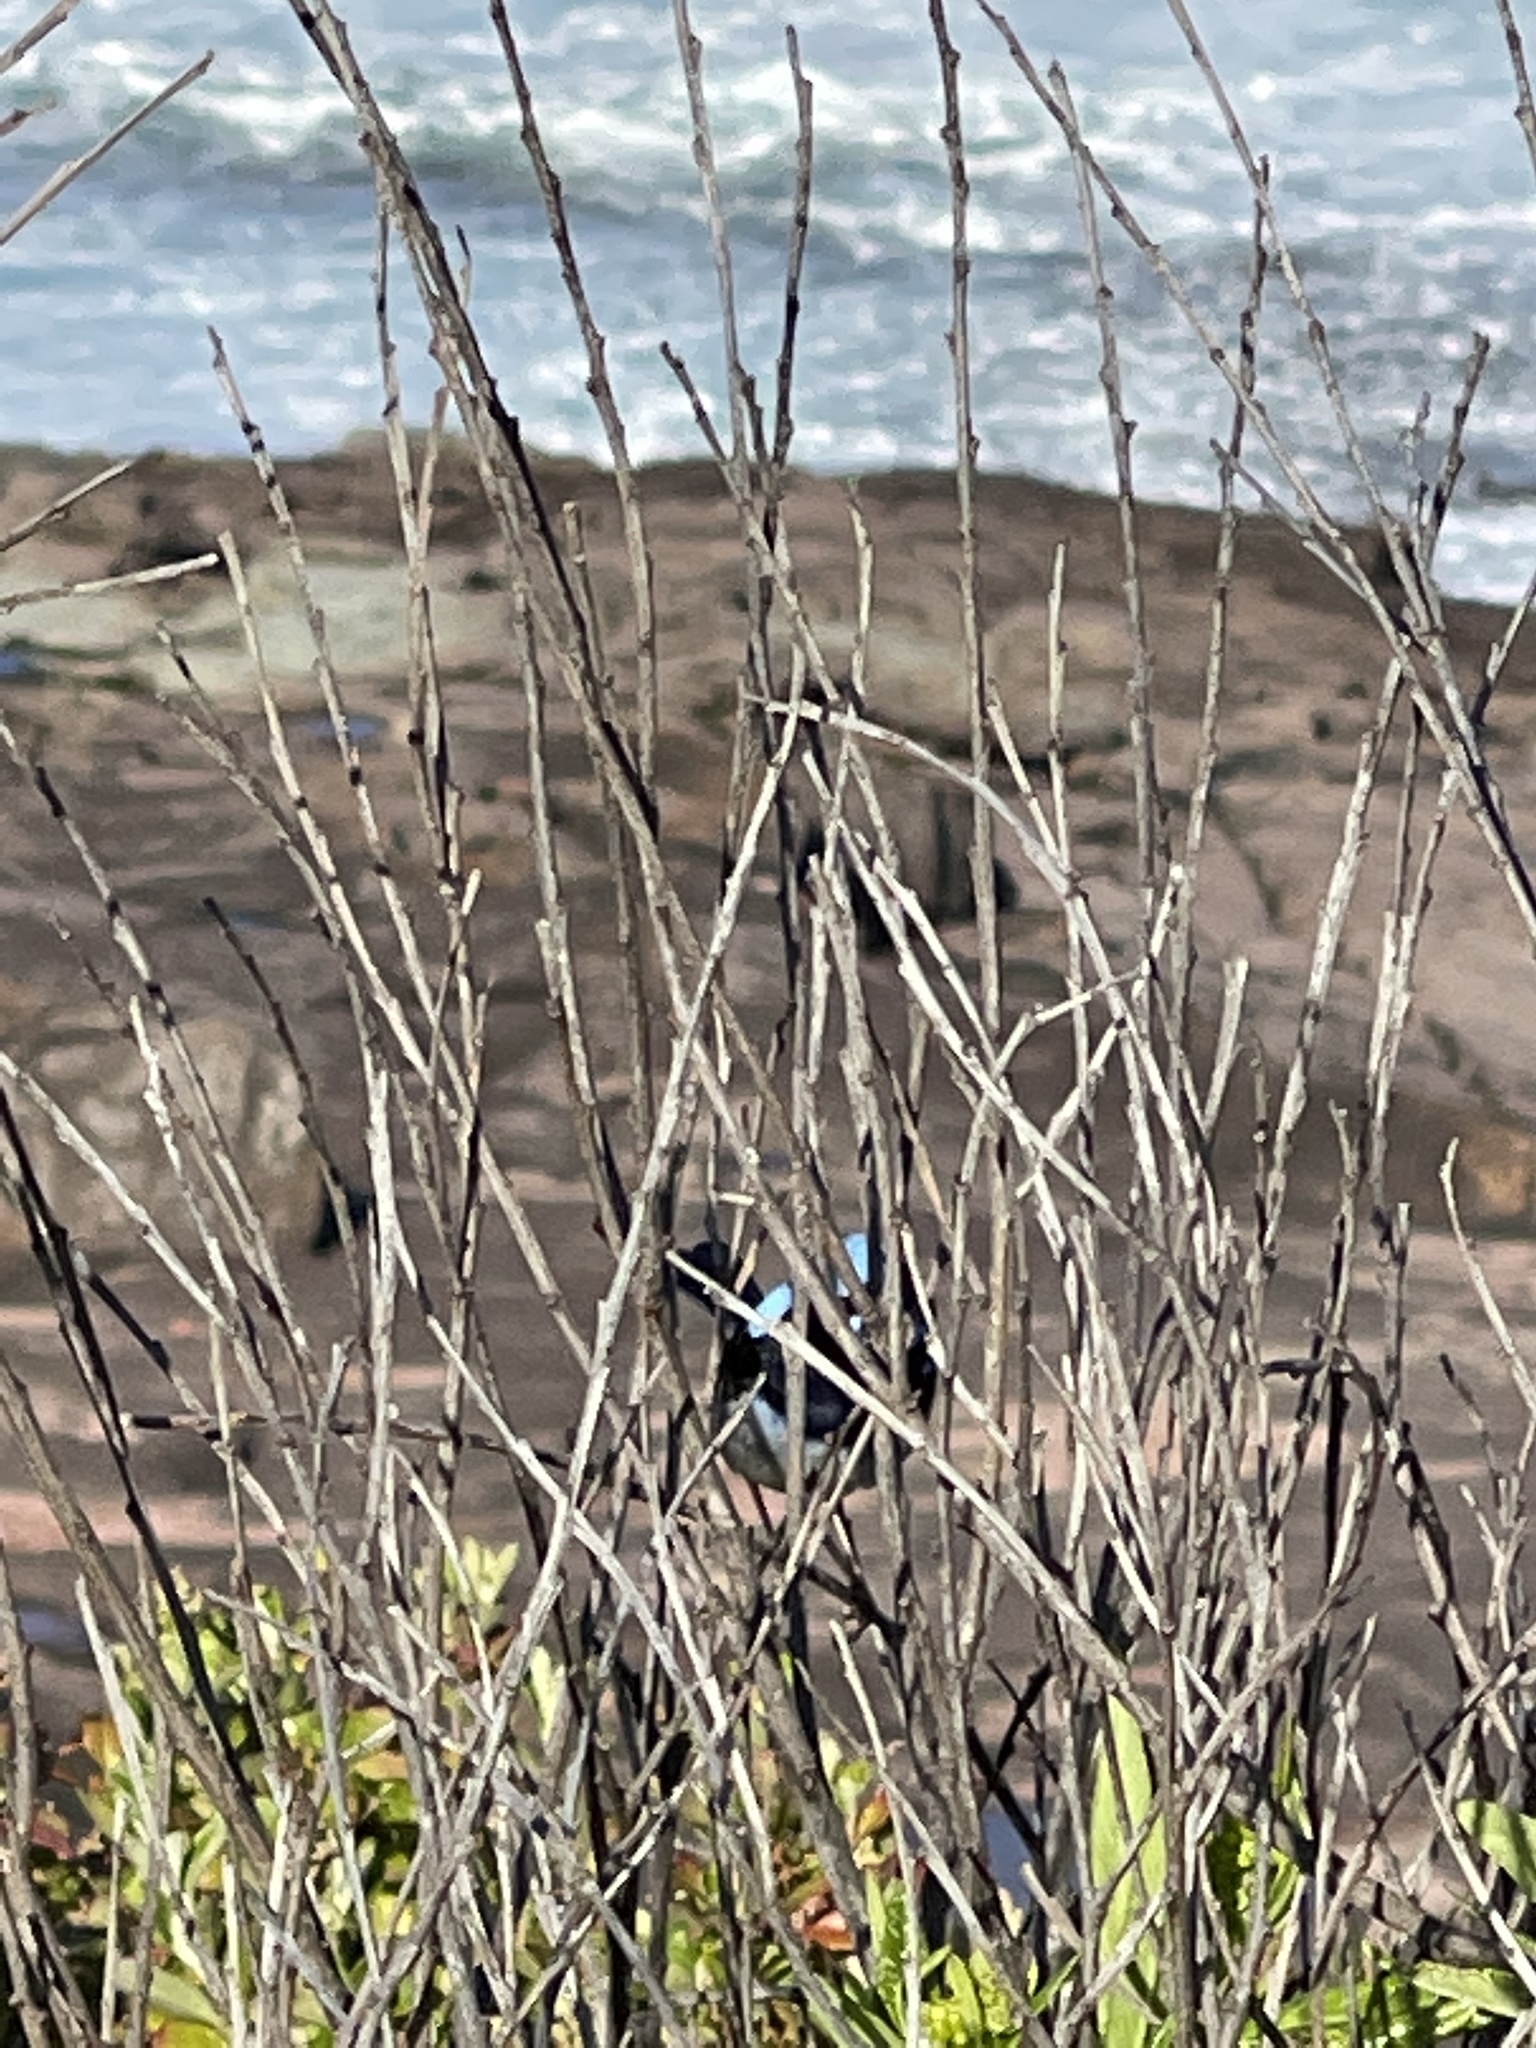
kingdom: Animalia
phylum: Chordata
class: Aves
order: Passeriformes
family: Maluridae
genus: Malurus
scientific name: Malurus cyaneus
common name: Superb fairywren
